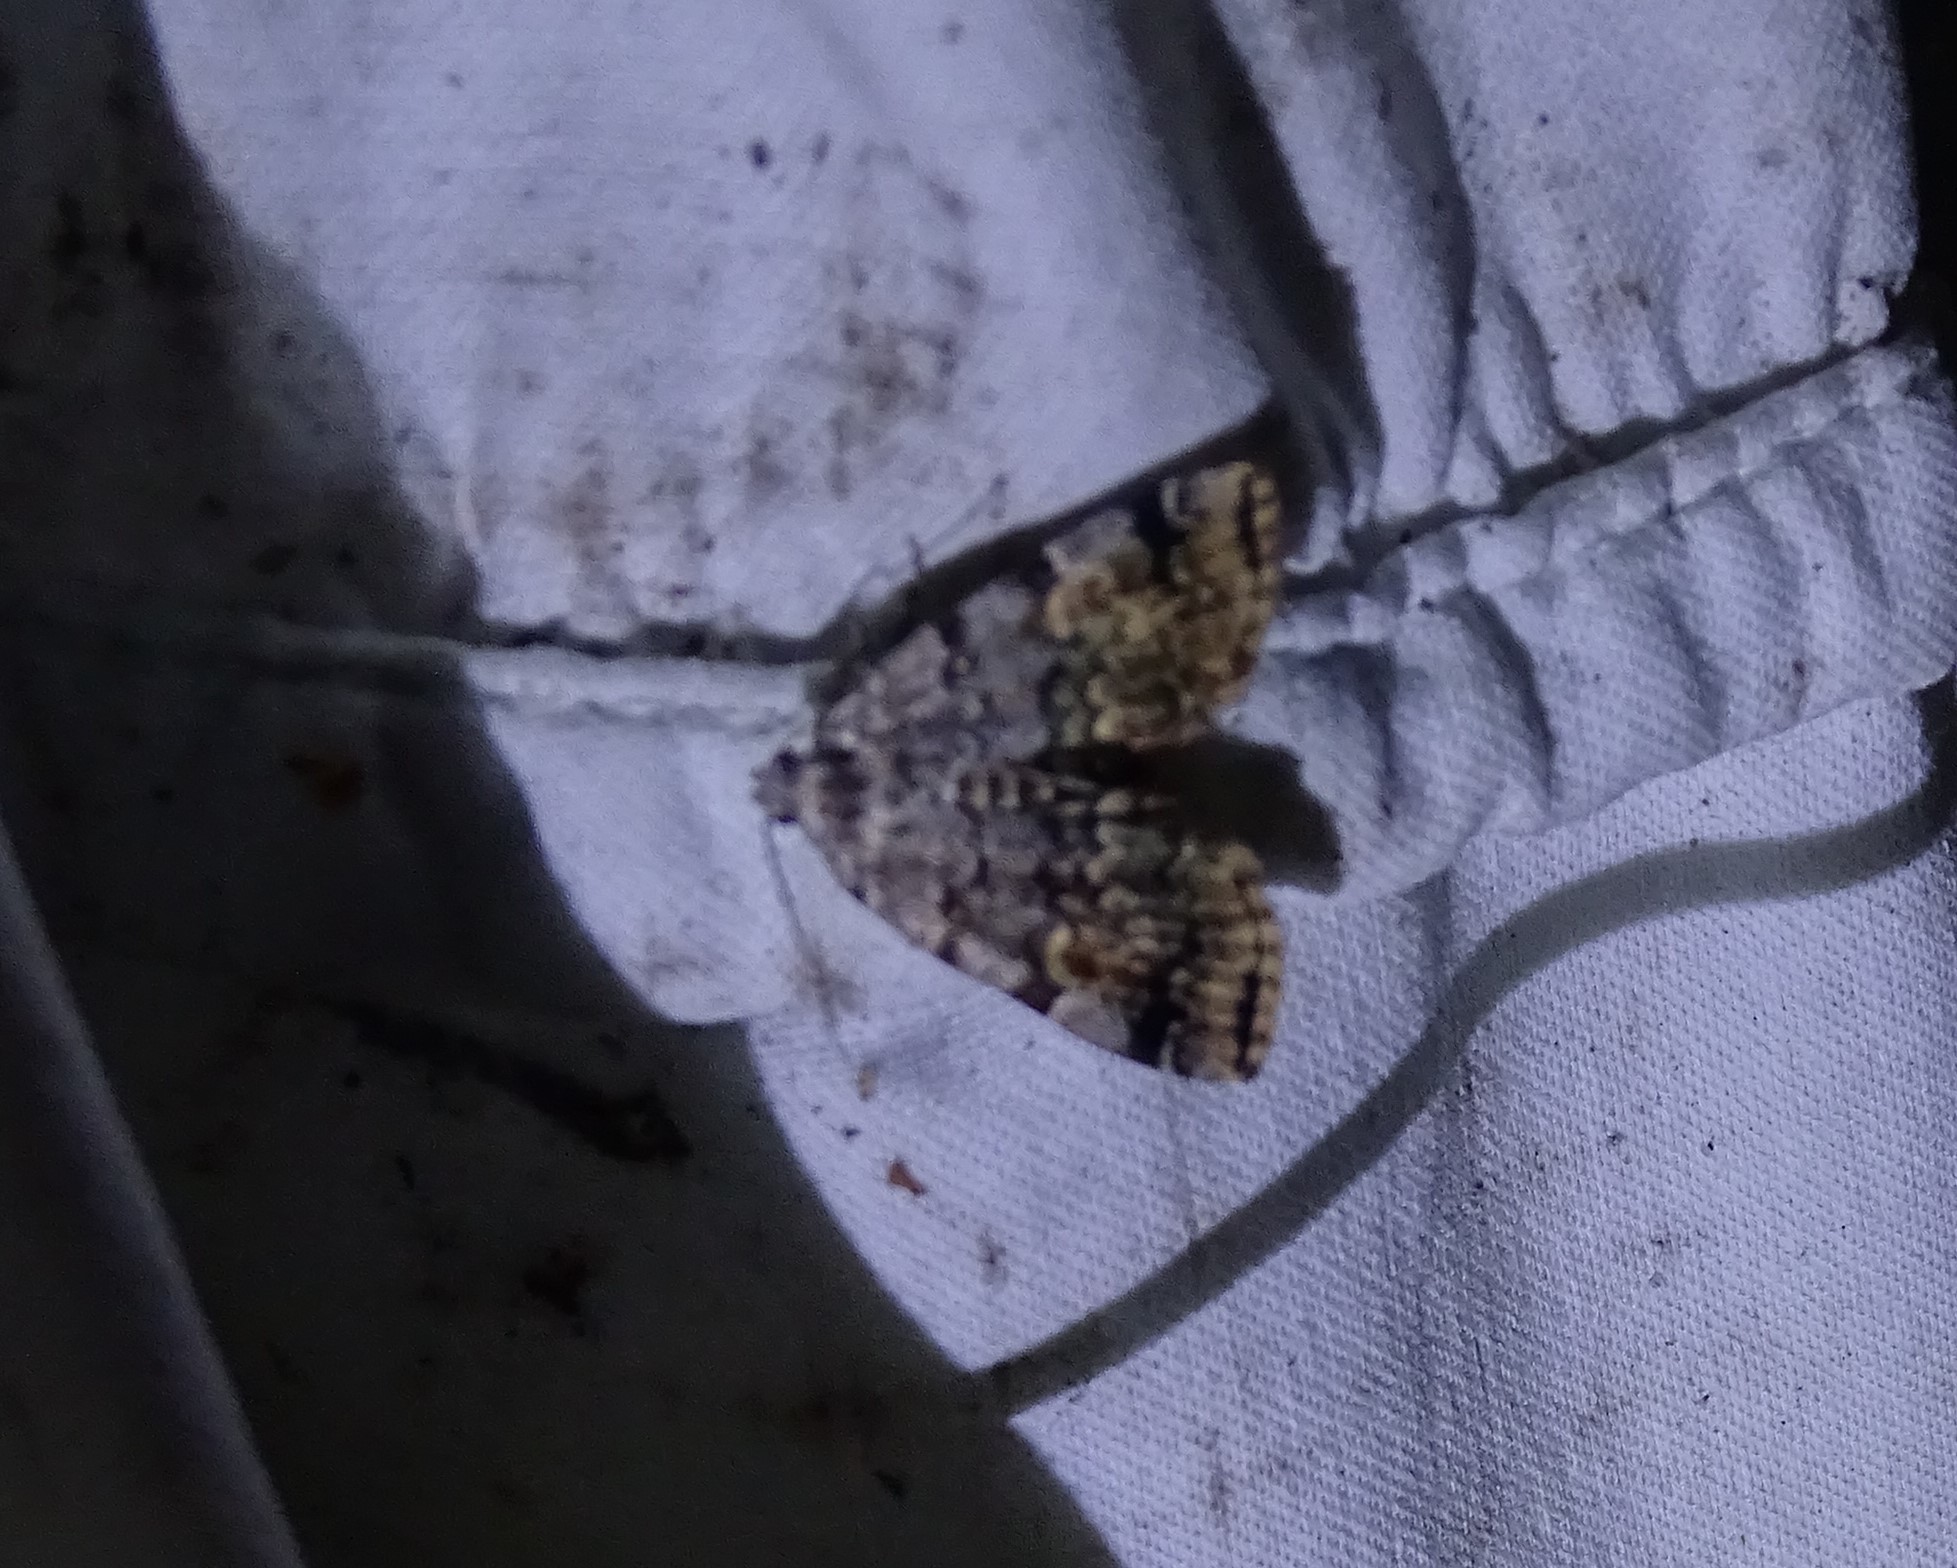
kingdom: Animalia
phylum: Arthropoda
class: Insecta
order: Lepidoptera
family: Erebidae
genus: Idia
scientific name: Idia americalis
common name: American idia moth
